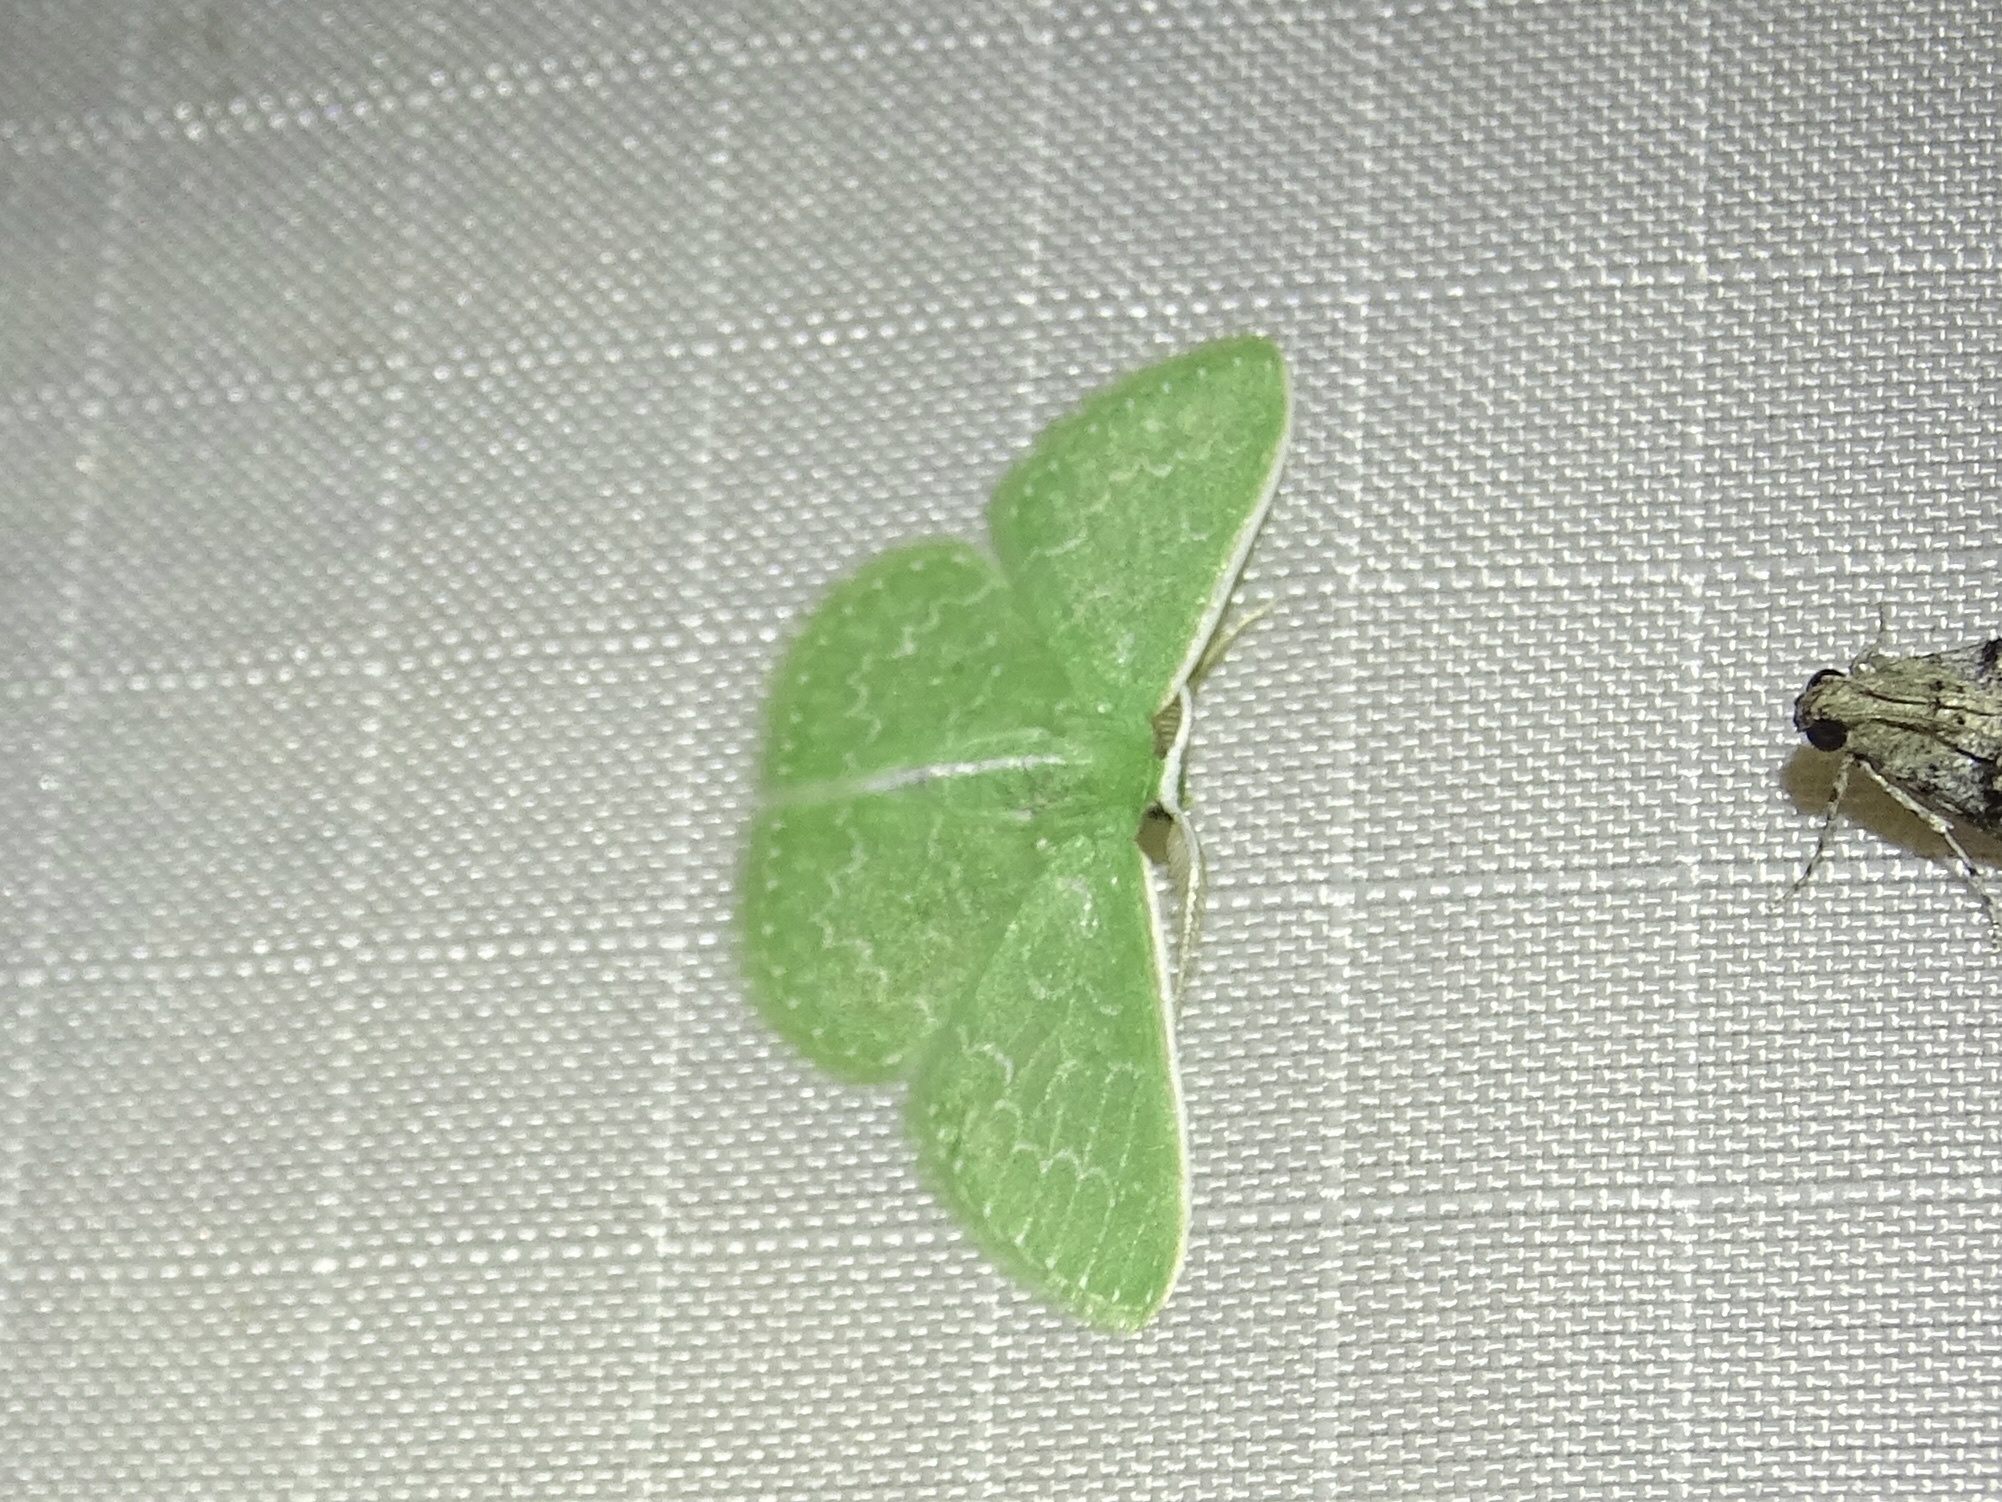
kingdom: Animalia
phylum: Arthropoda
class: Insecta
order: Lepidoptera
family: Geometridae
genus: Synchlora
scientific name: Synchlora frondaria
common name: Southern emerald
